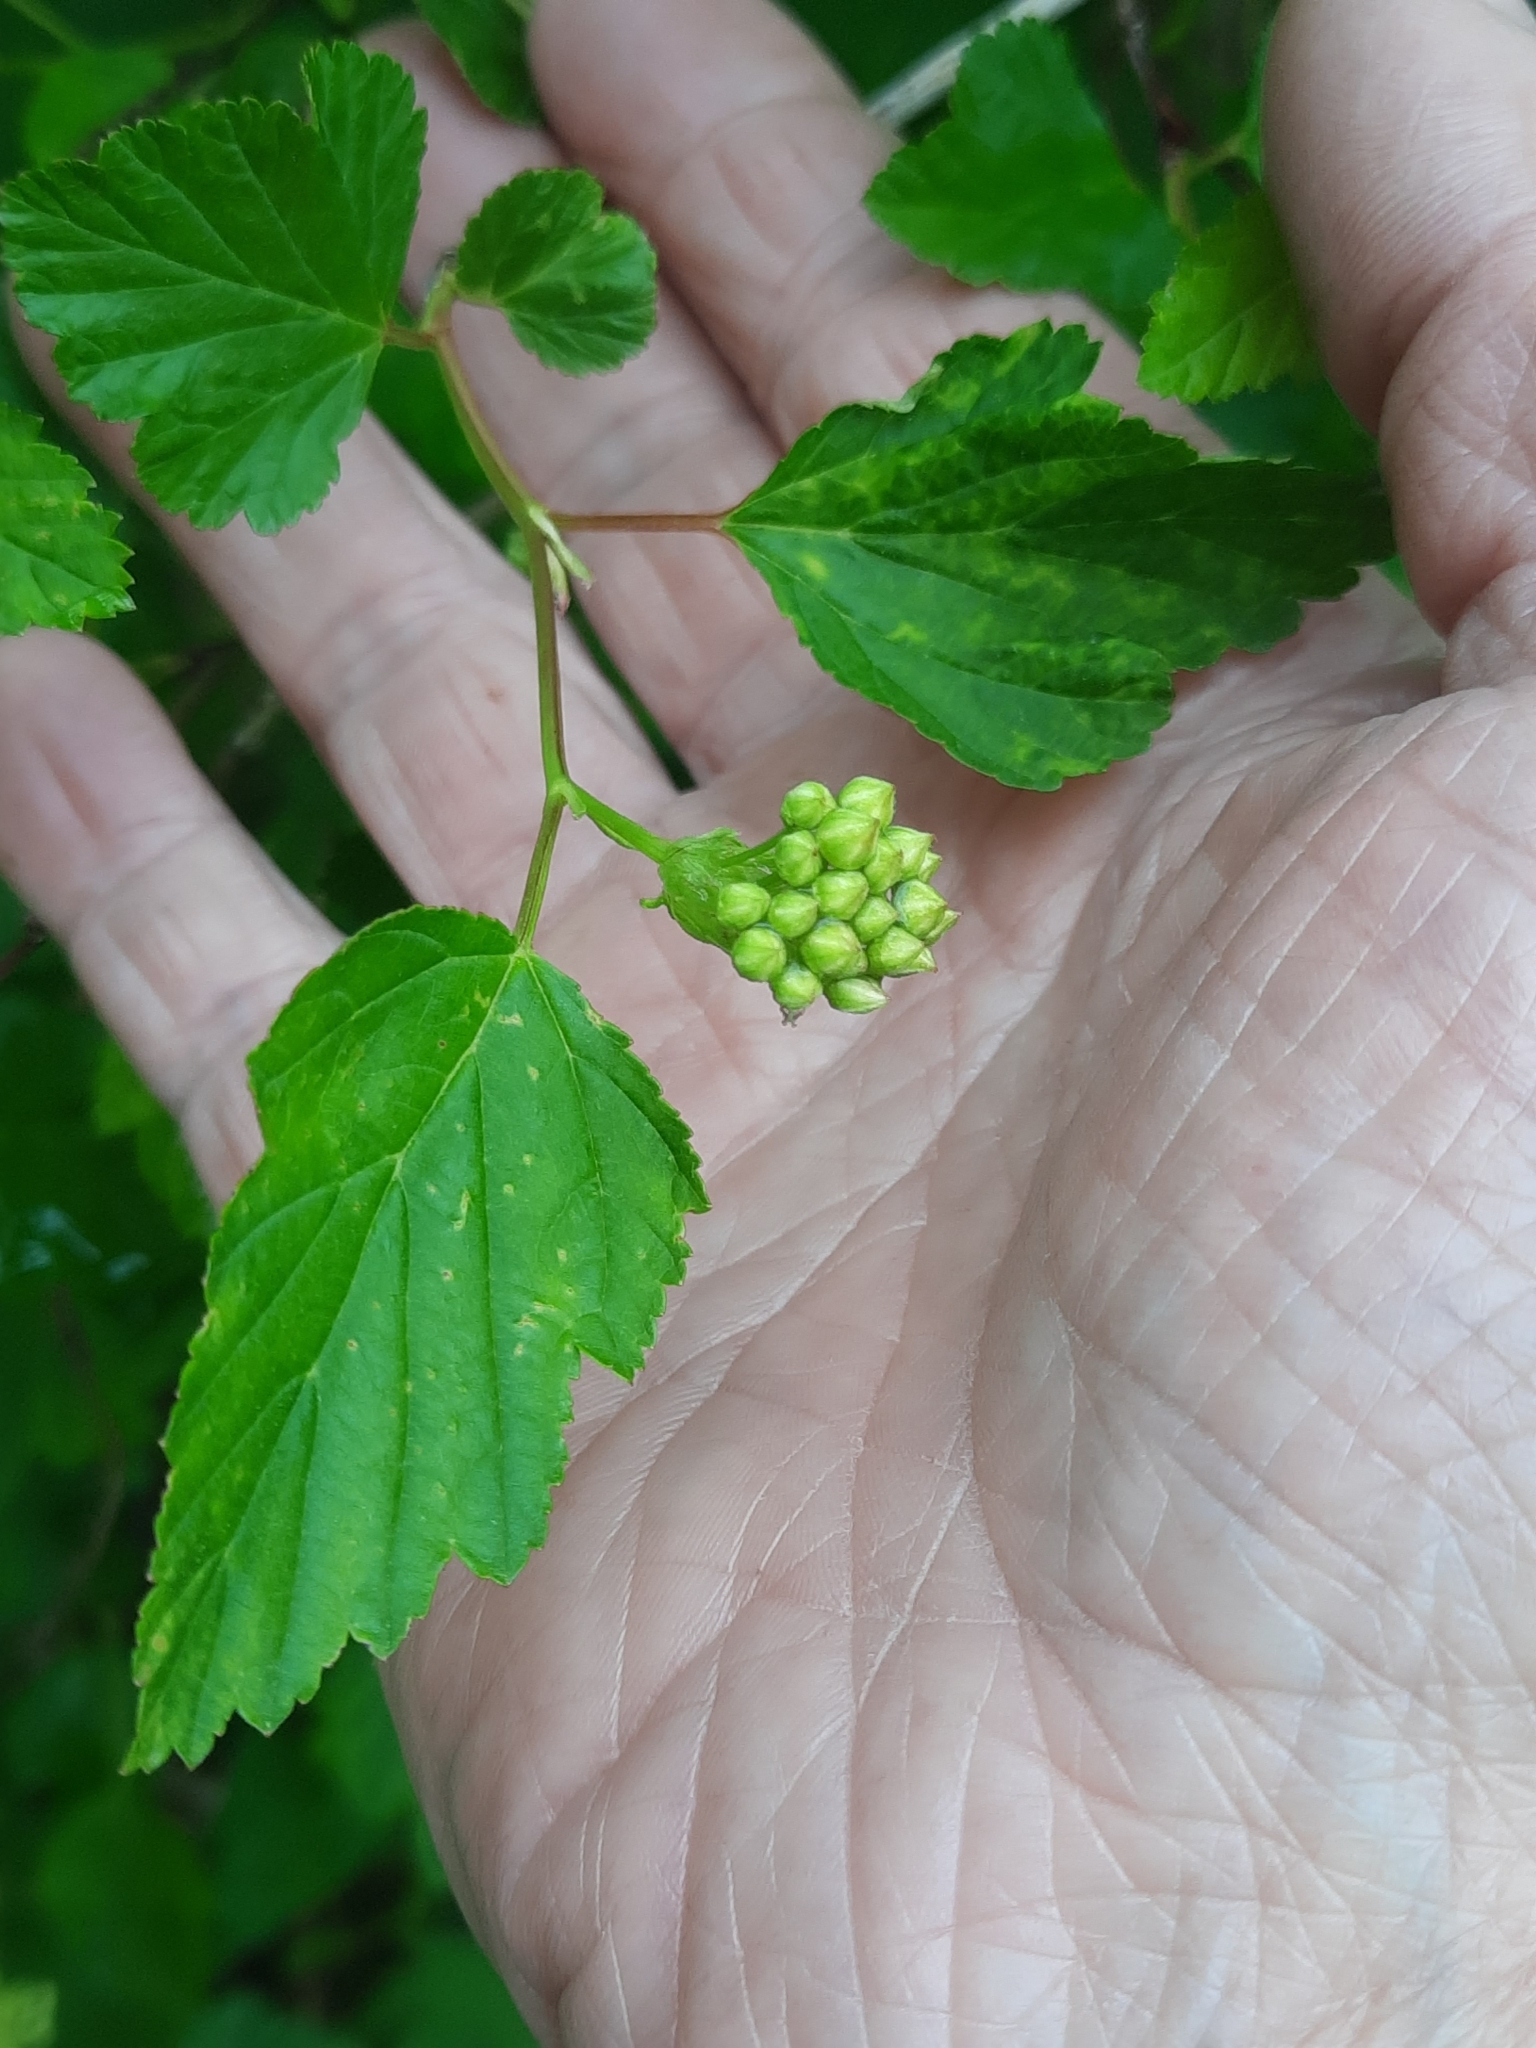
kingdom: Plantae
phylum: Tracheophyta
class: Magnoliopsida
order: Rosales
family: Rosaceae
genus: Physocarpus
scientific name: Physocarpus opulifolius
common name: Ninebark
